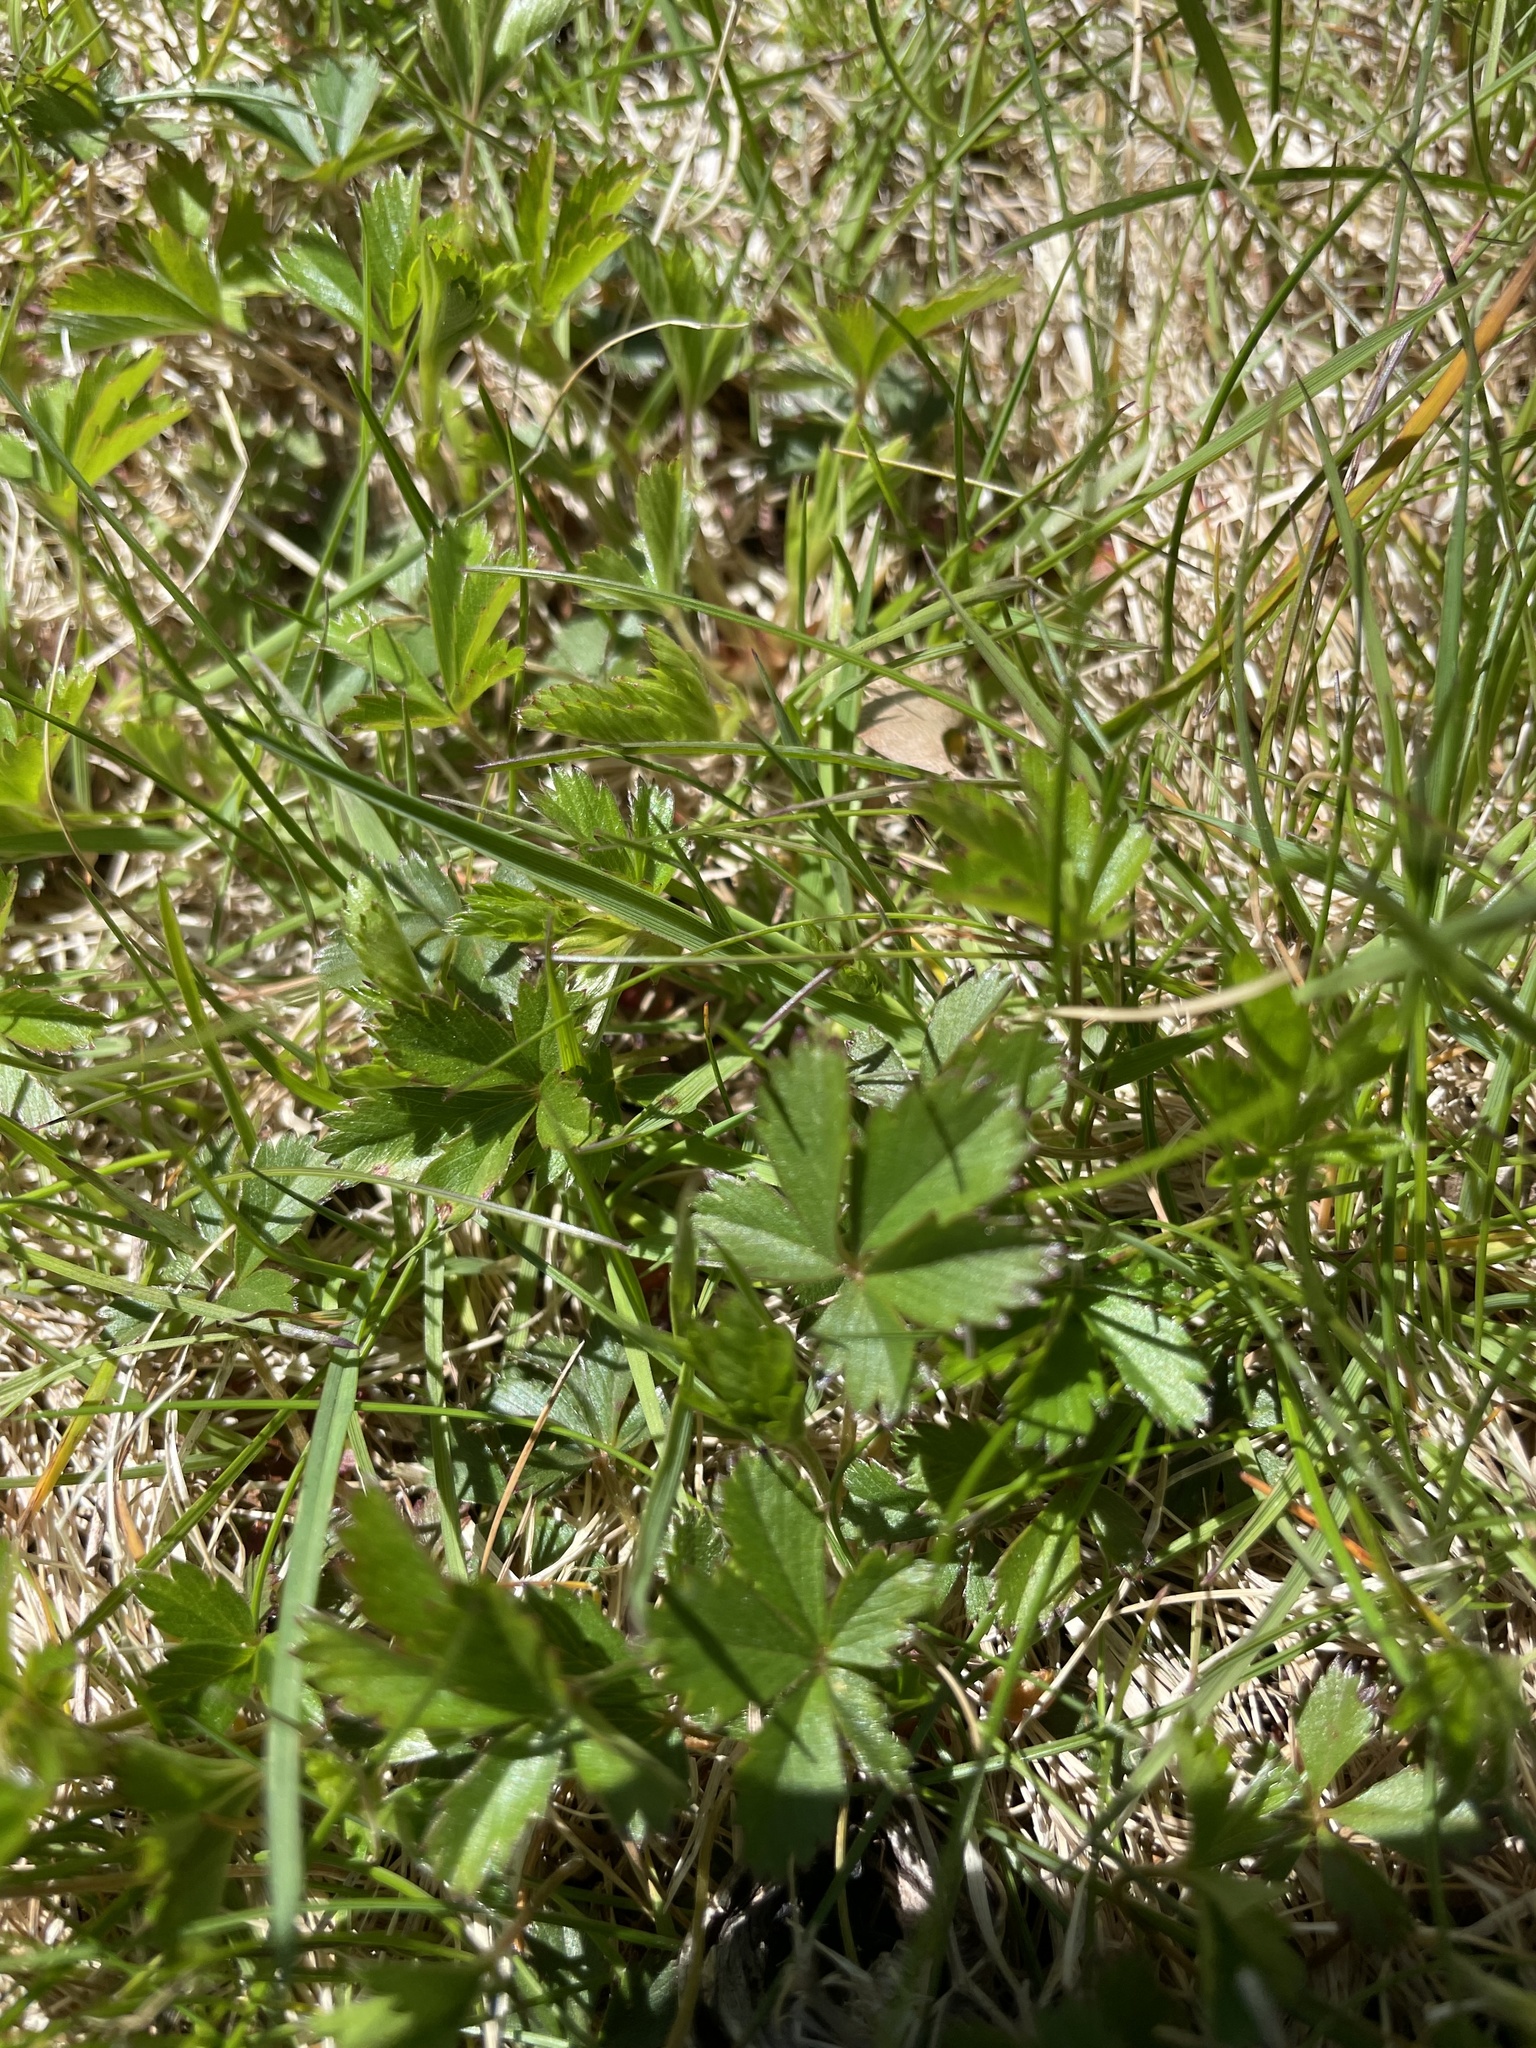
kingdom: Plantae
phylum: Tracheophyta
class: Magnoliopsida
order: Rosales
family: Rosaceae
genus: Potentilla
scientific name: Potentilla canadensis
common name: Canada cinquefoil
